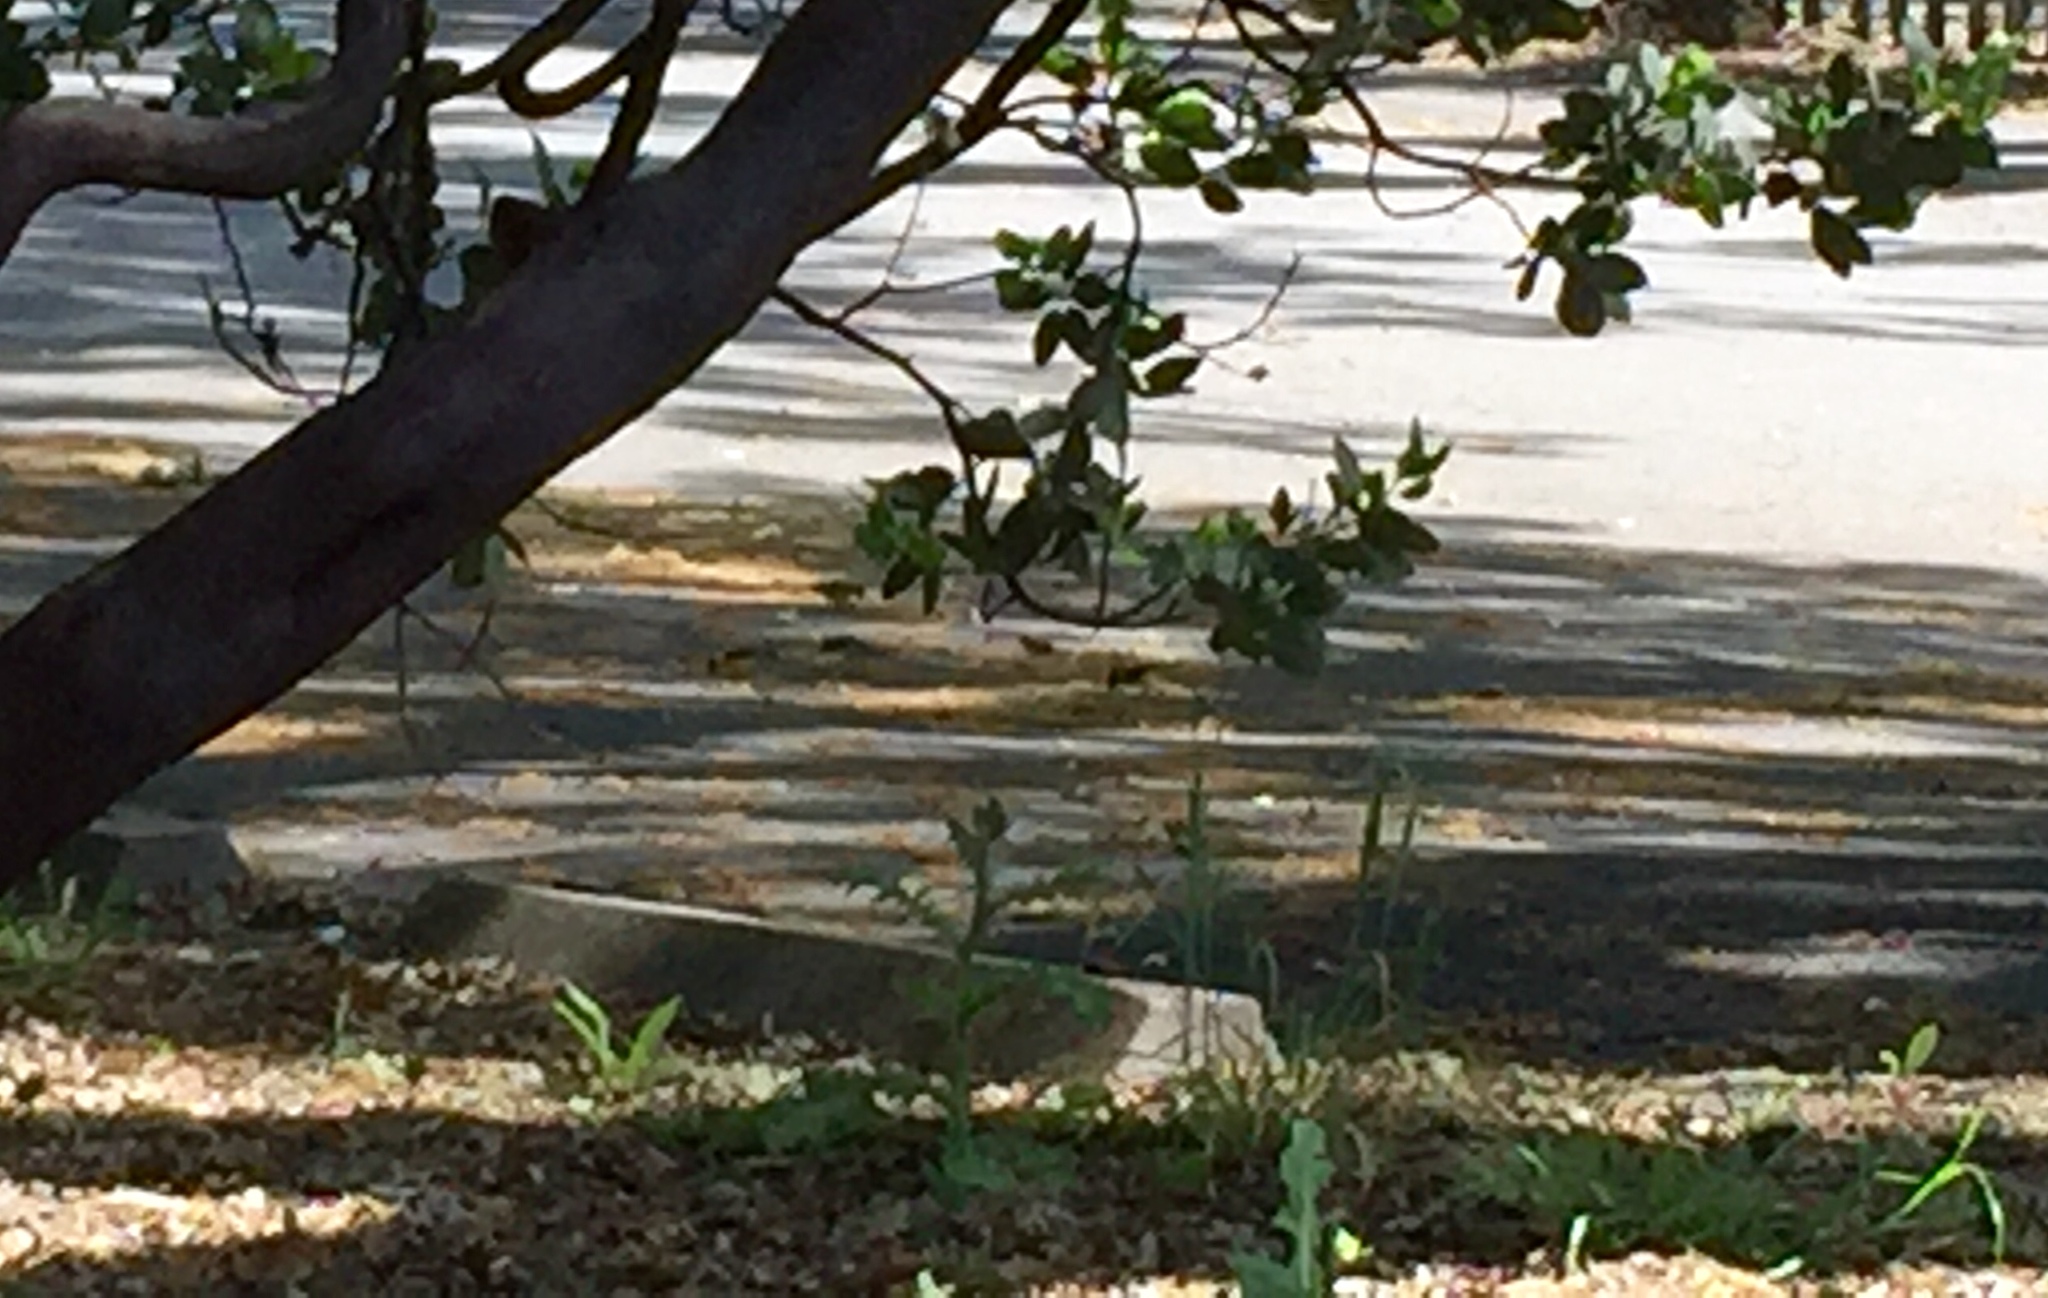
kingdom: Animalia
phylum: Chordata
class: Aves
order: Passeriformes
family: Fringillidae
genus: Spinus
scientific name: Spinus psaltria
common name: Lesser goldfinch
